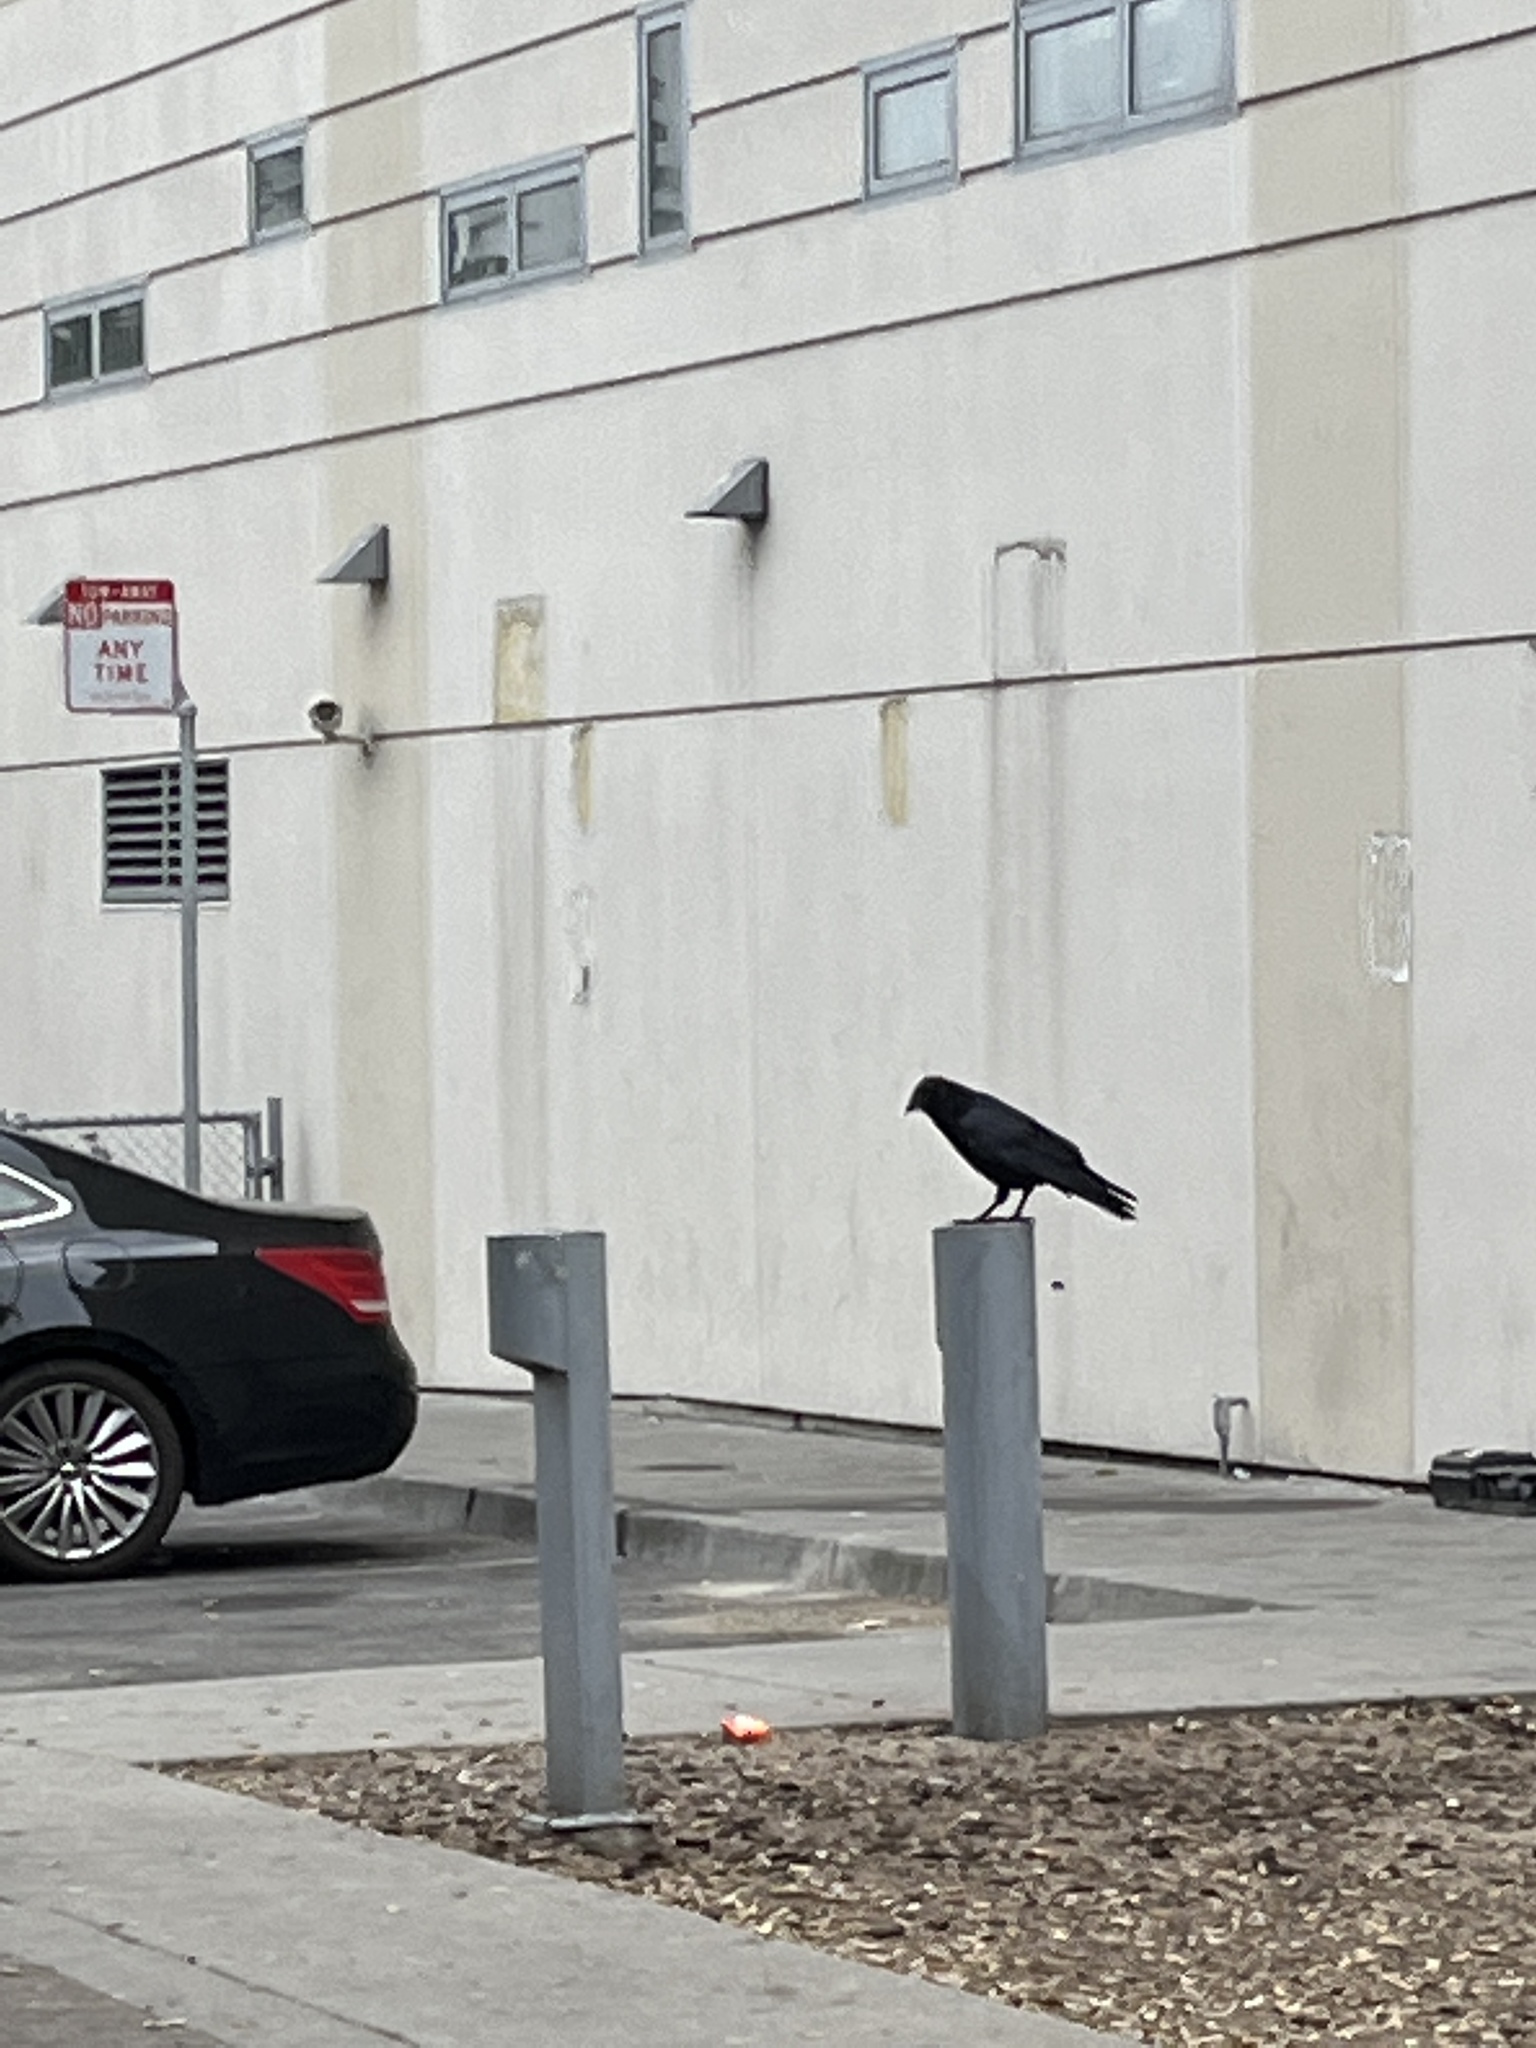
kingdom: Animalia
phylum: Chordata
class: Aves
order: Passeriformes
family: Corvidae
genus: Corvus
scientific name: Corvus brachyrhynchos
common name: American crow
